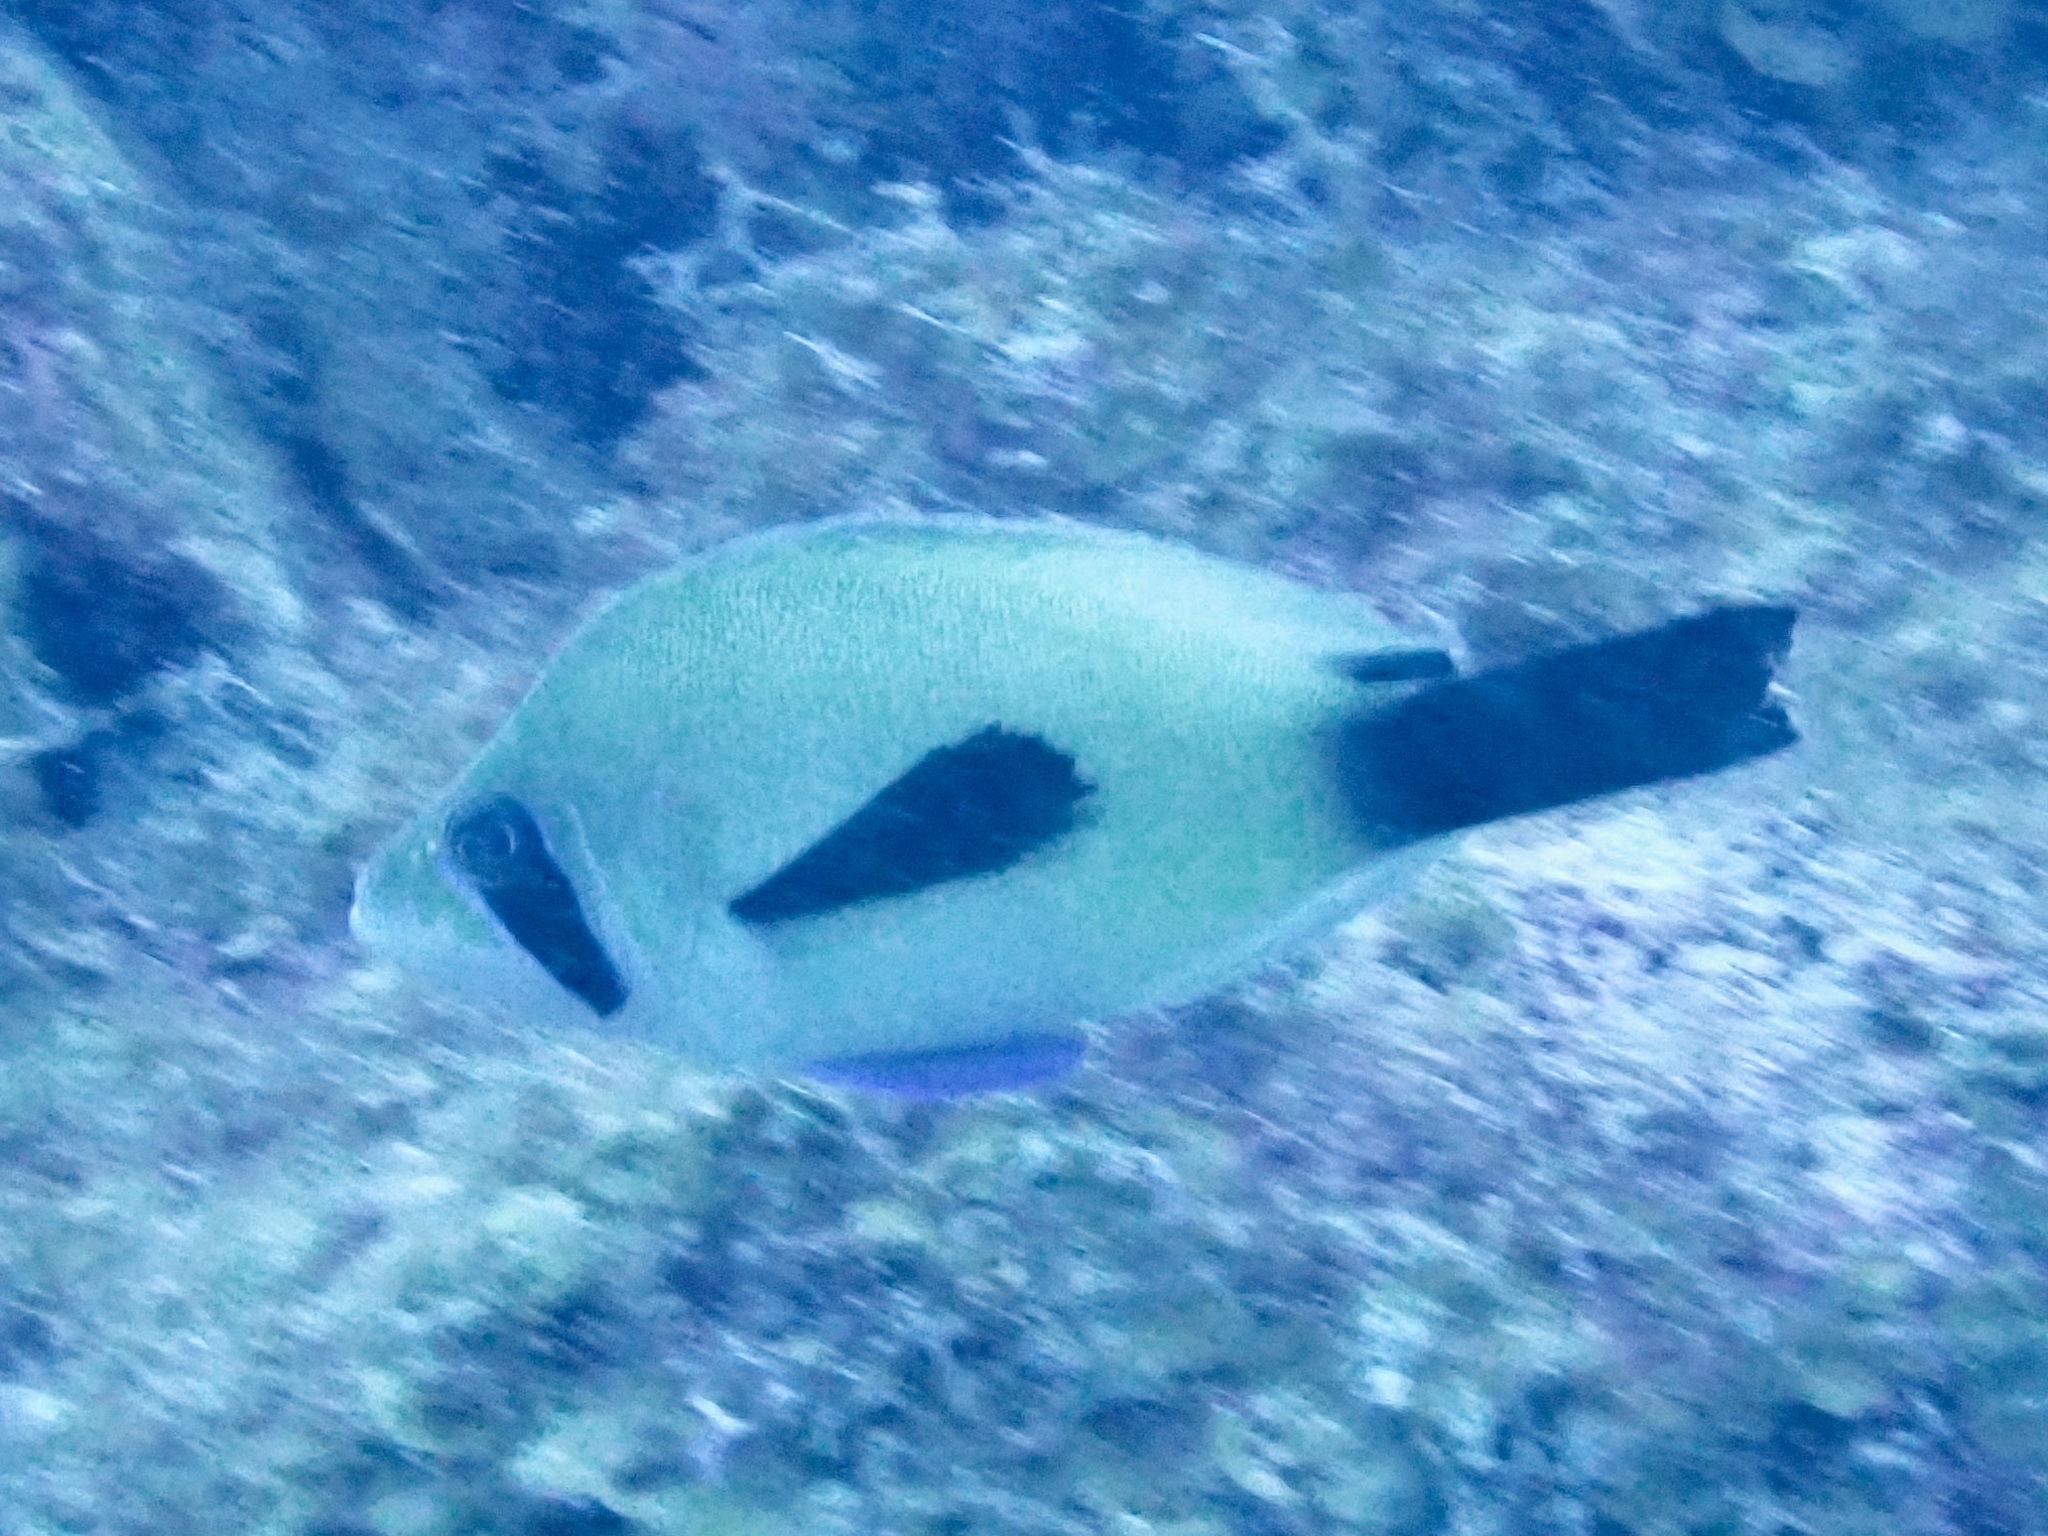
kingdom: Animalia
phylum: Chordata
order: Perciformes
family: Serranidae
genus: Hypoplectrus
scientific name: Hypoplectrus providencianus
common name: Masked hamlet
